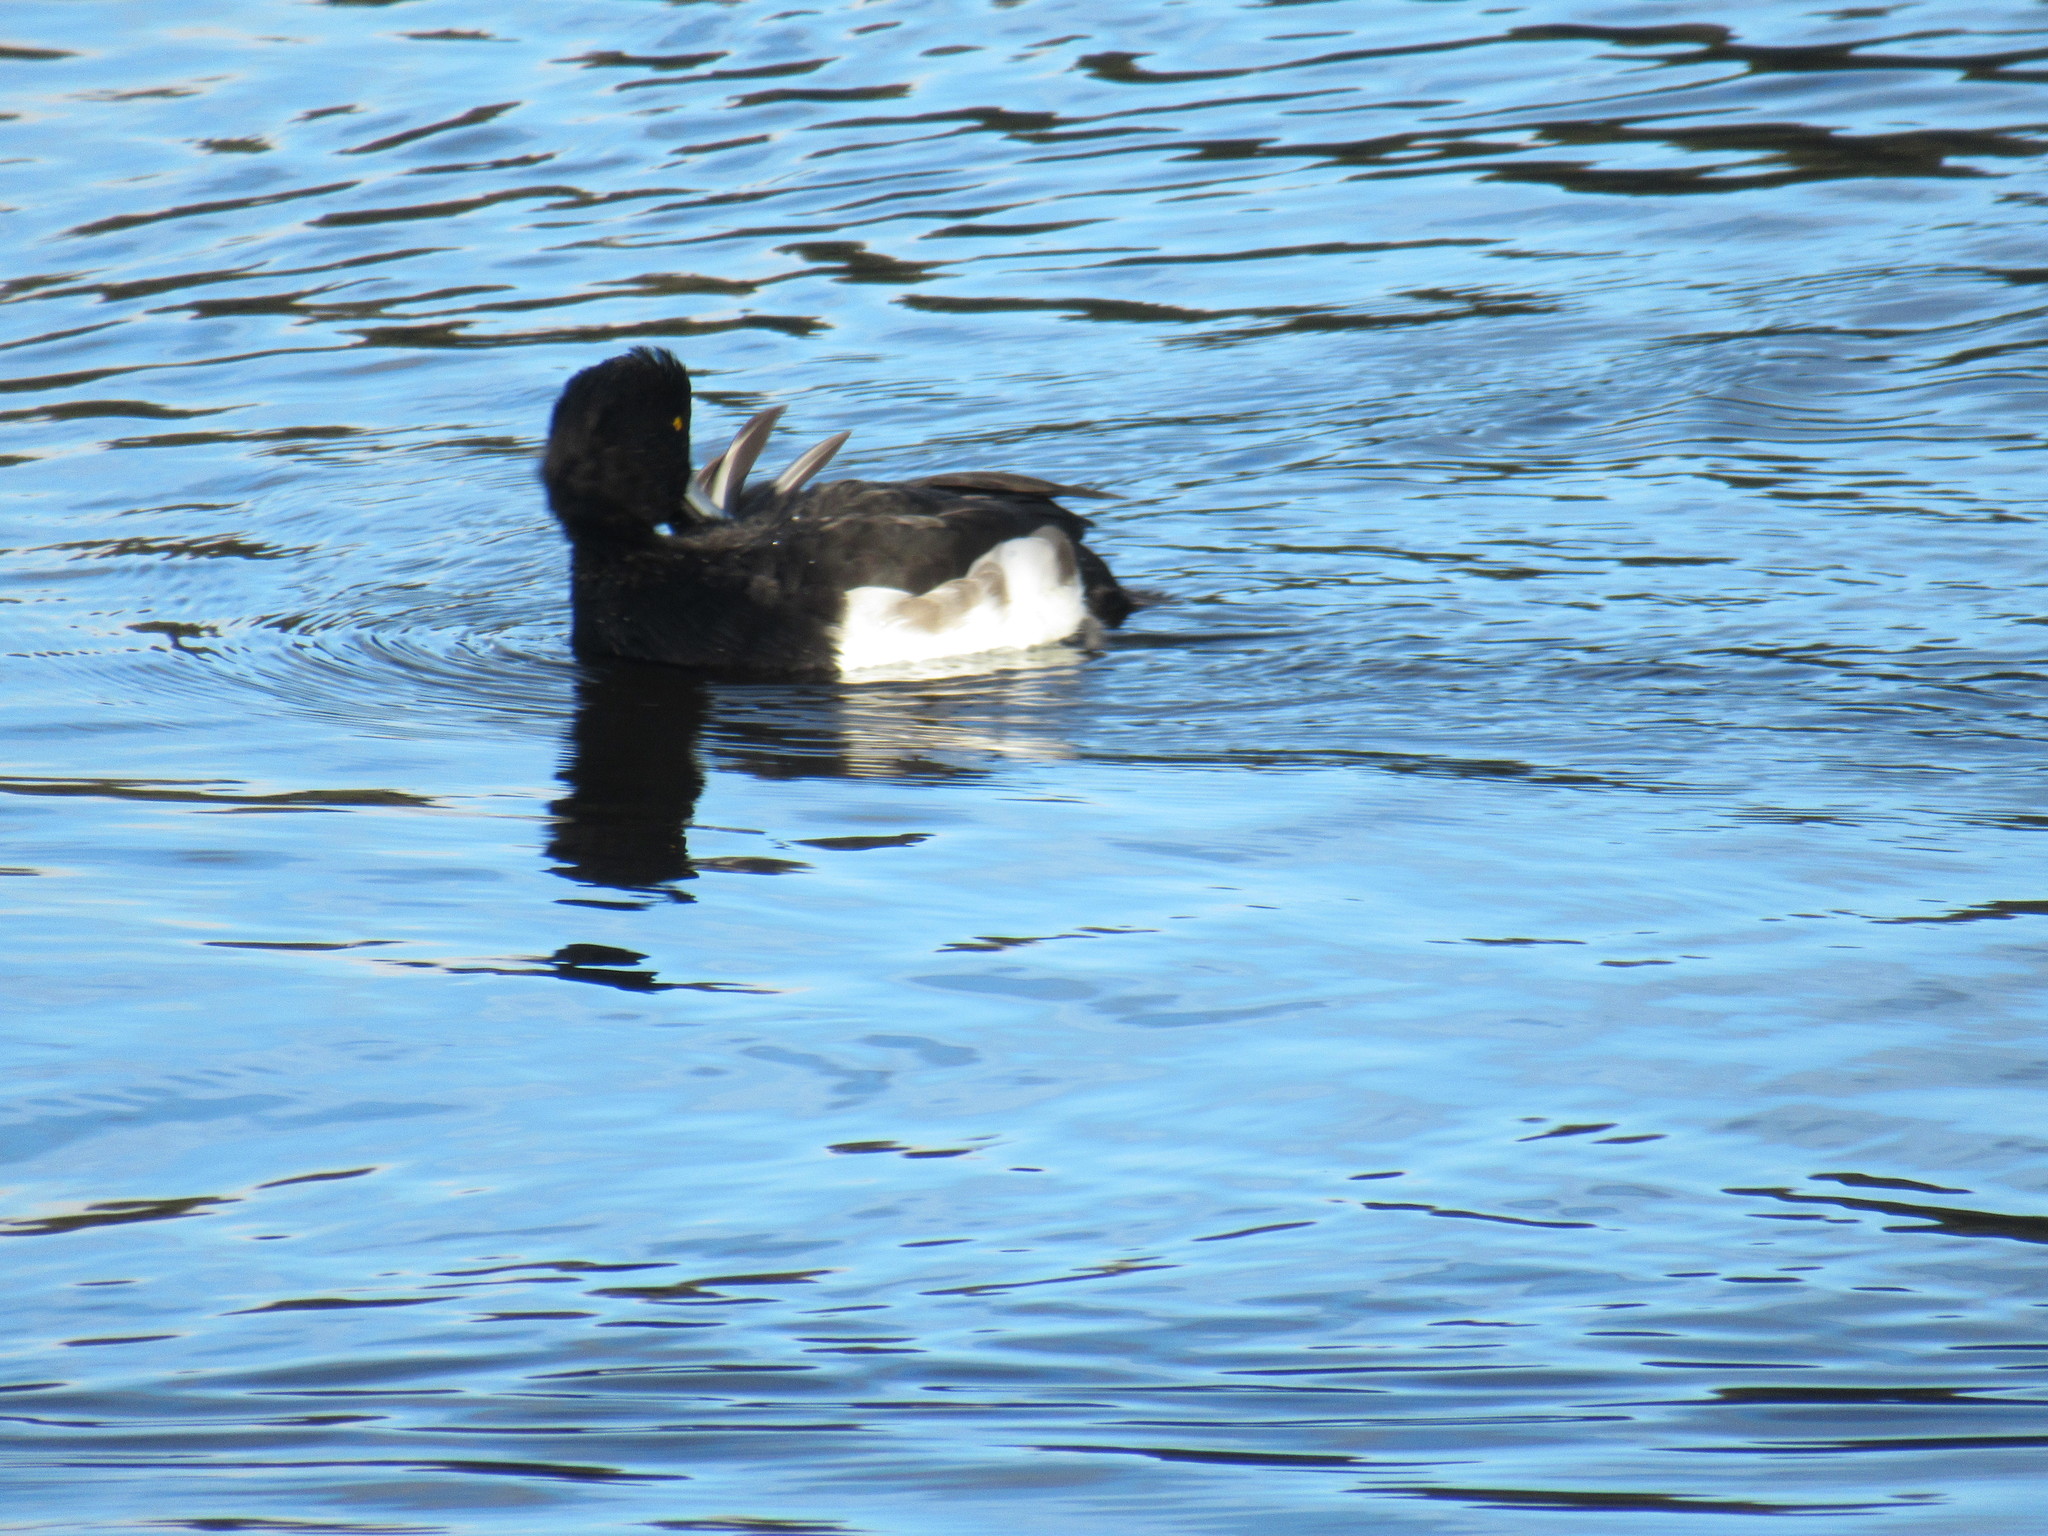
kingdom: Animalia
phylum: Chordata
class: Aves
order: Anseriformes
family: Anatidae
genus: Aythya
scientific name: Aythya fuligula
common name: Tufted duck
